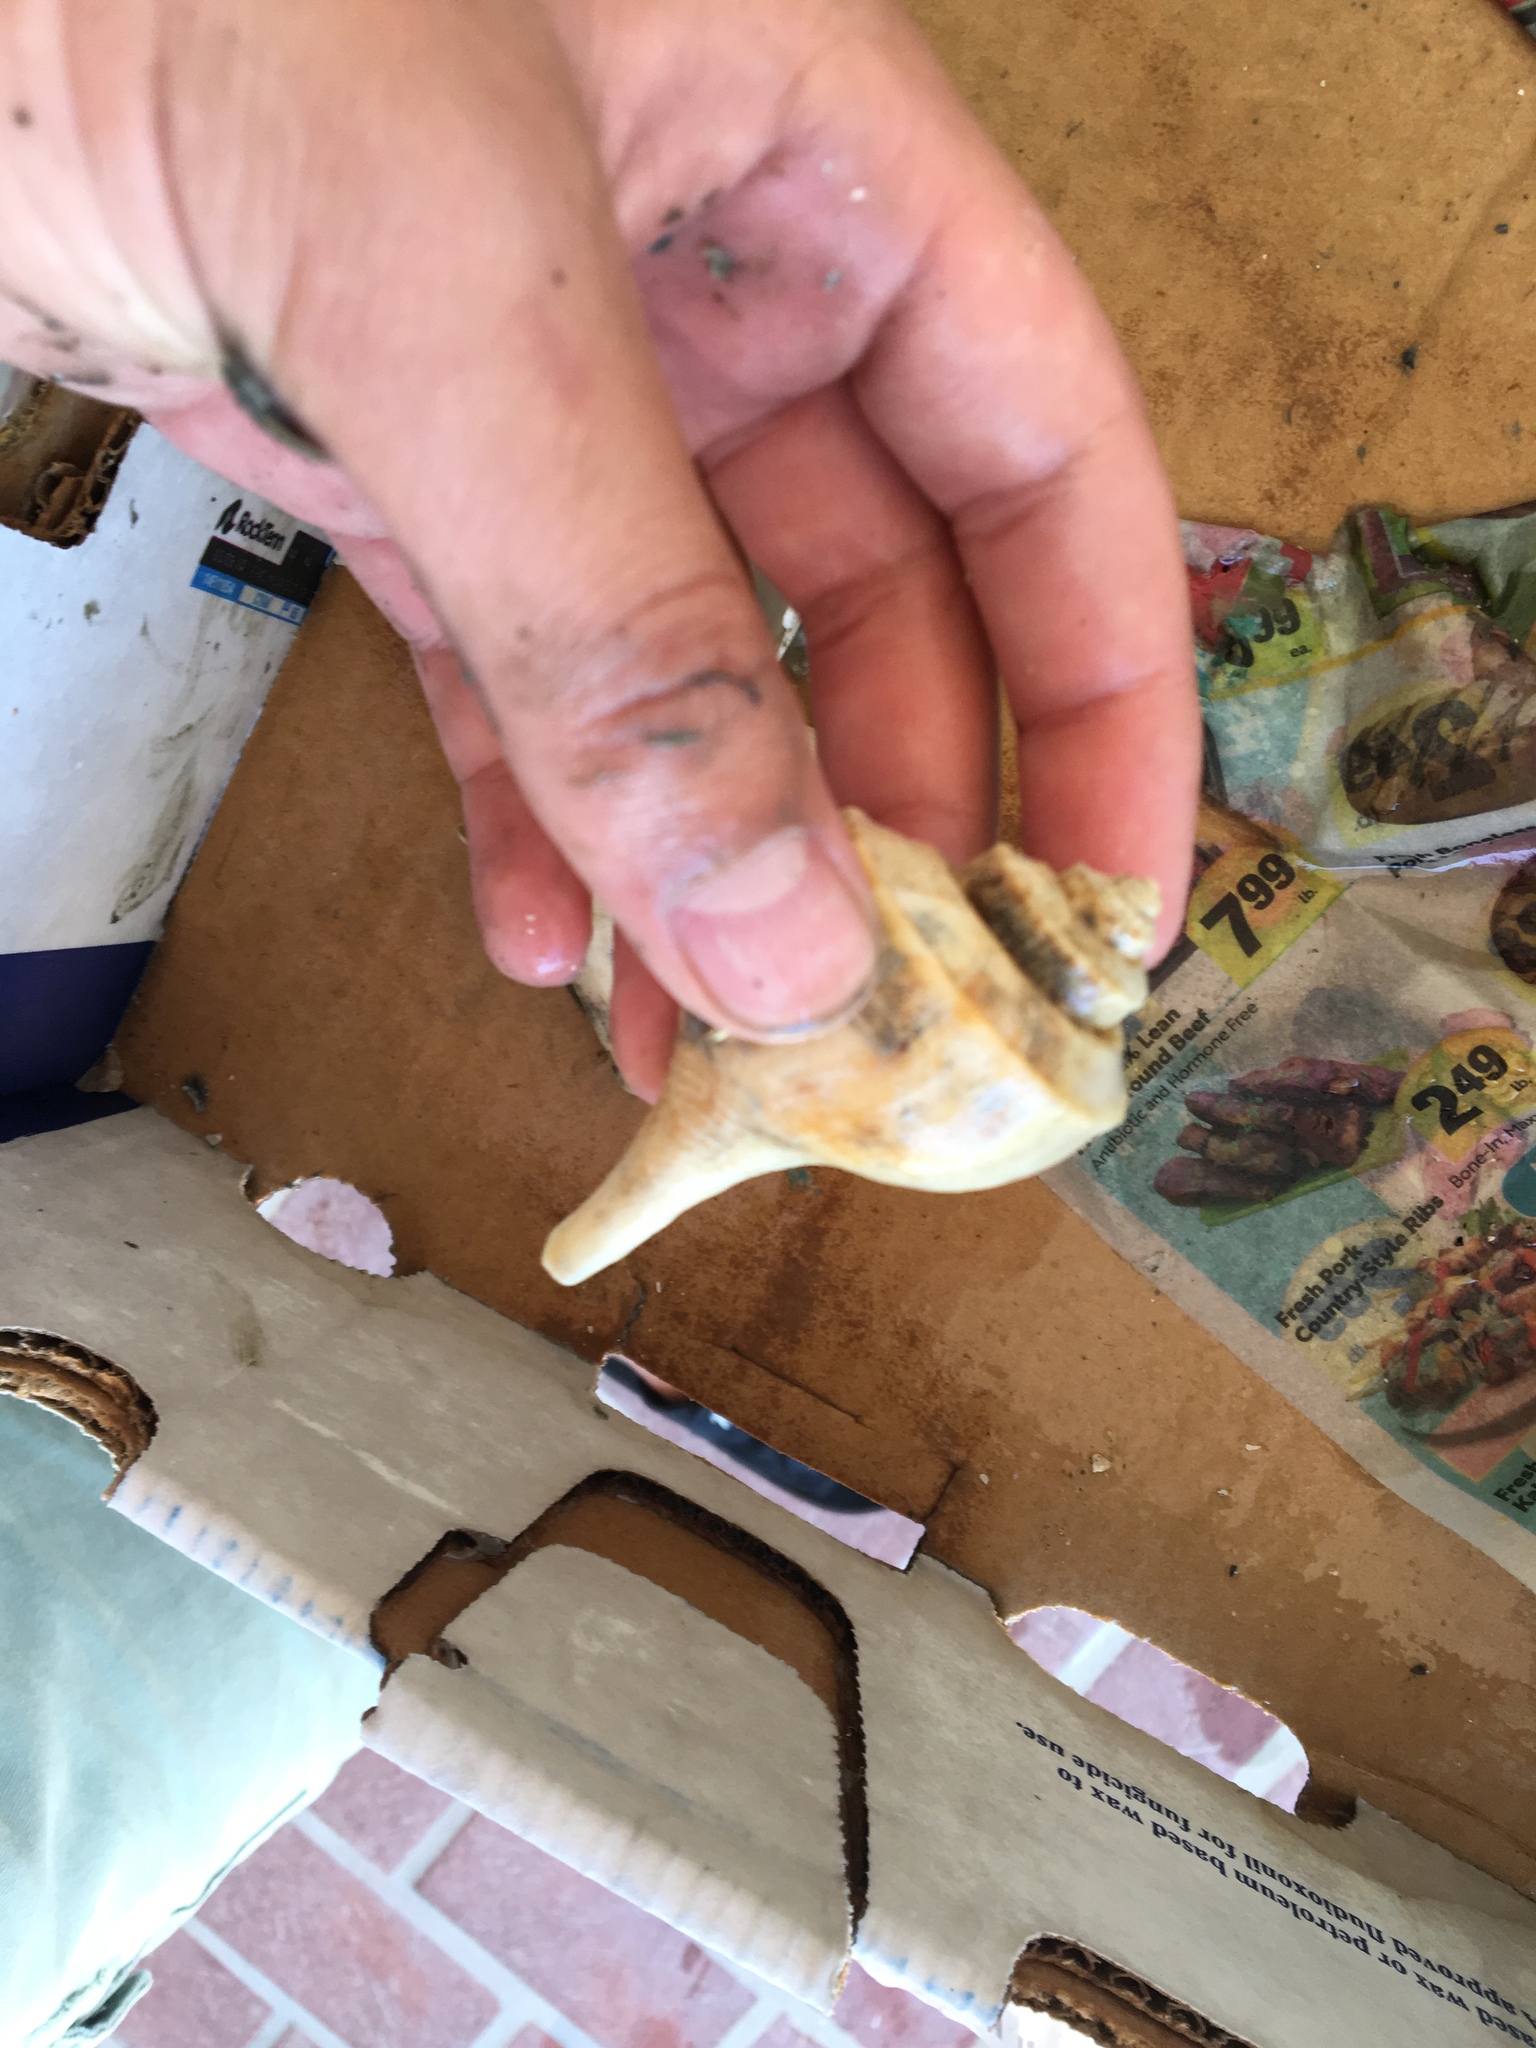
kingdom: Animalia
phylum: Mollusca
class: Gastropoda
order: Neogastropoda
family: Busyconidae
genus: Busycotypus
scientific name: Busycotypus canaliculatus
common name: Channeled whelk
